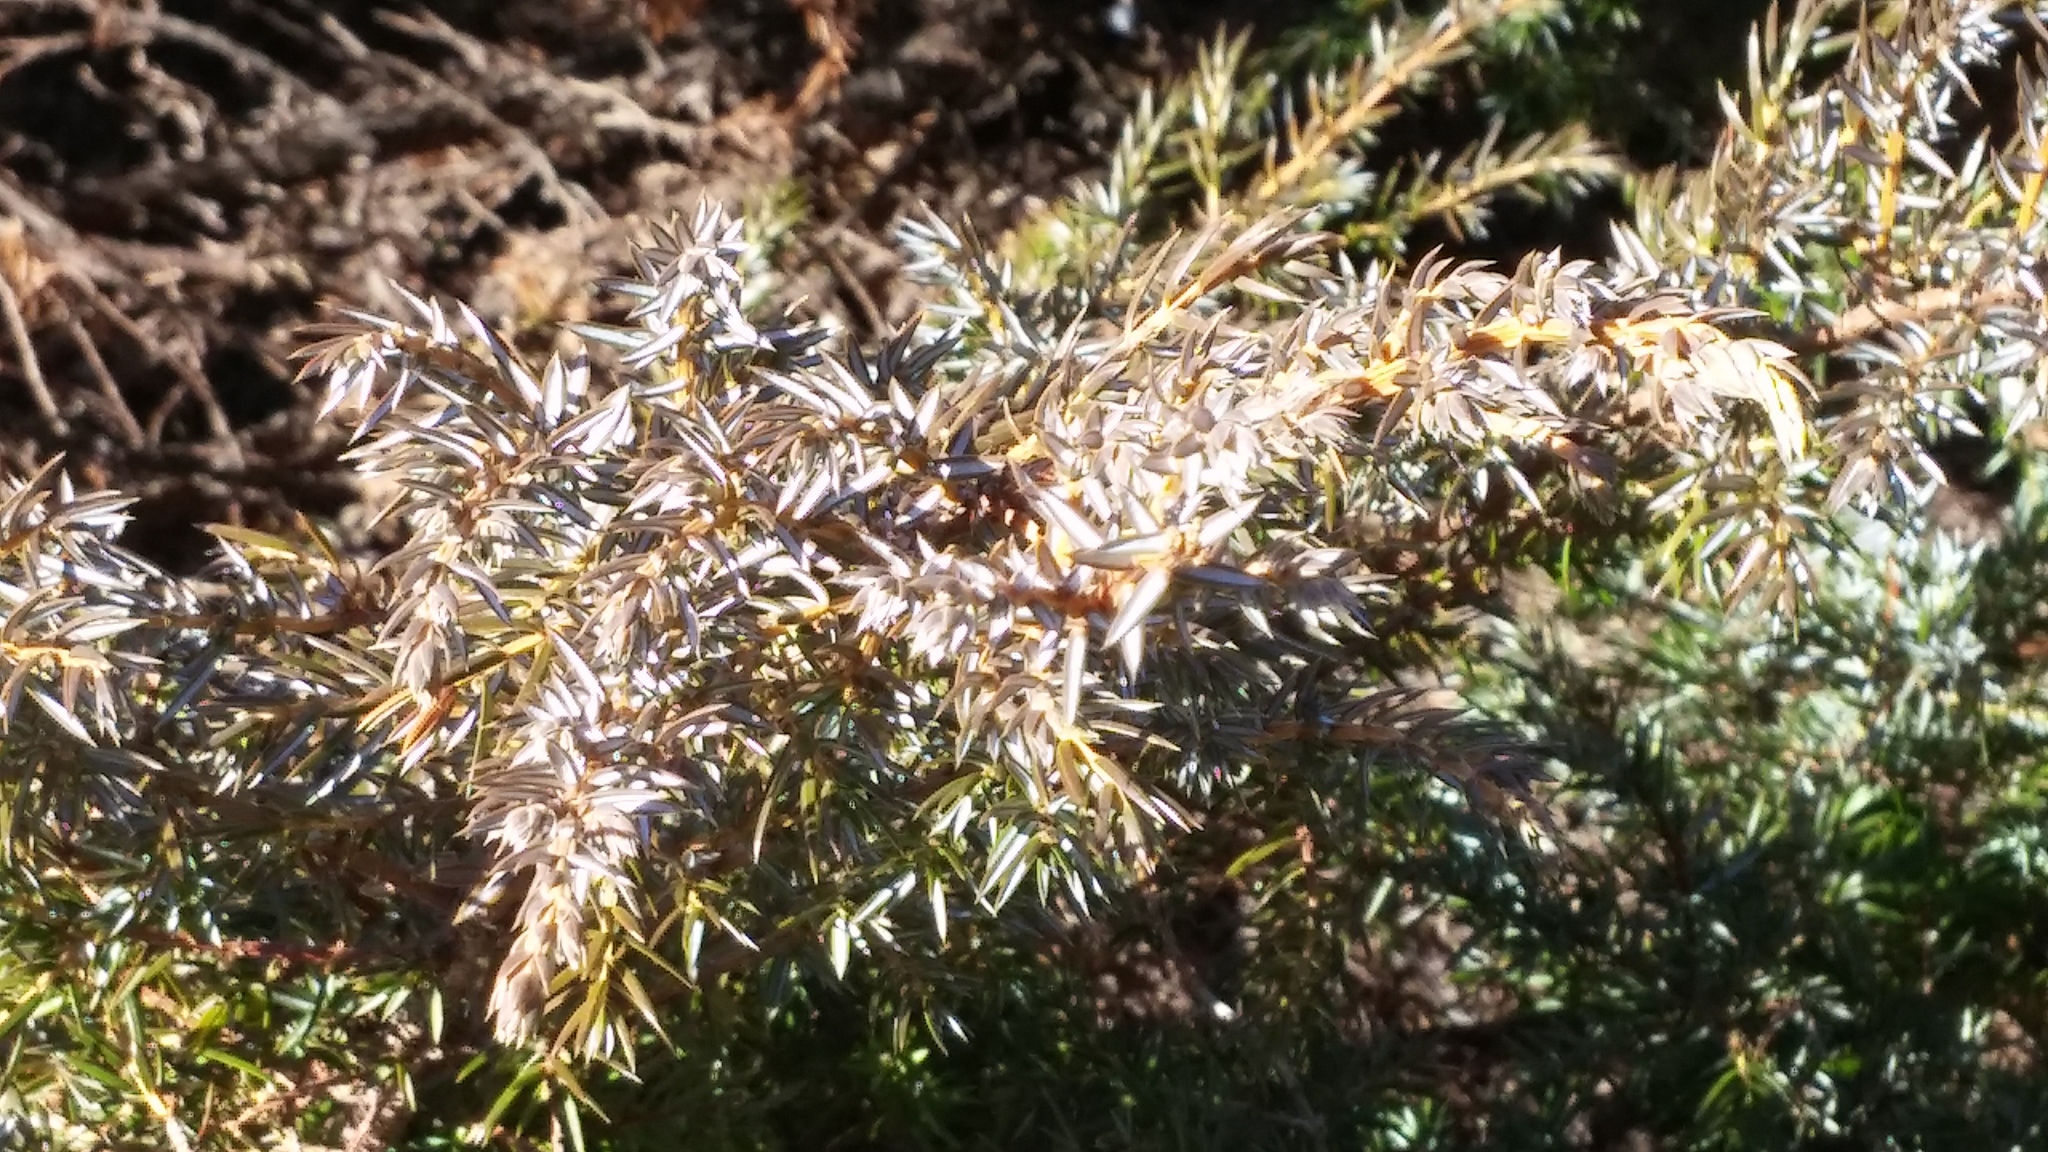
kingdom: Plantae
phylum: Tracheophyta
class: Pinopsida
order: Pinales
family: Cupressaceae
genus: Juniperus
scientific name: Juniperus communis
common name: Common juniper
